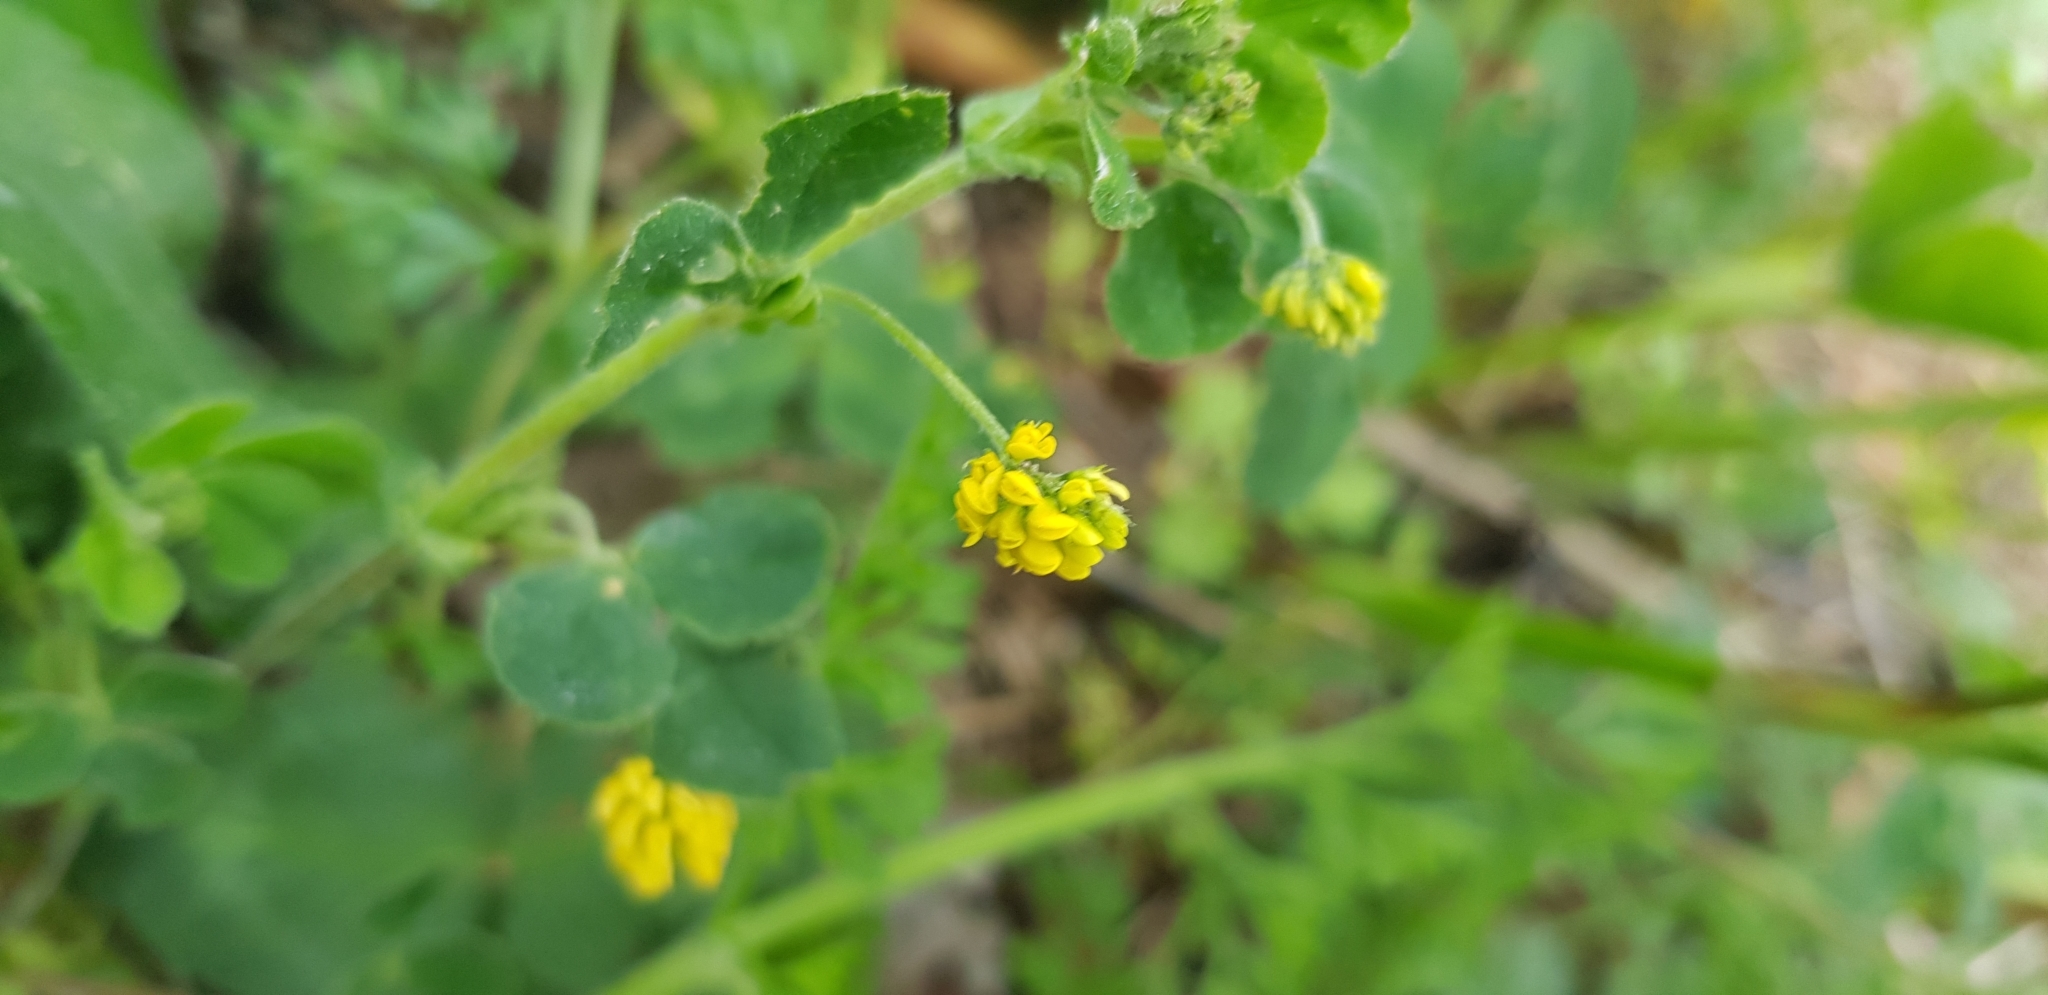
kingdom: Plantae
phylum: Tracheophyta
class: Magnoliopsida
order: Fabales
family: Fabaceae
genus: Medicago
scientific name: Medicago lupulina
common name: Black medick
